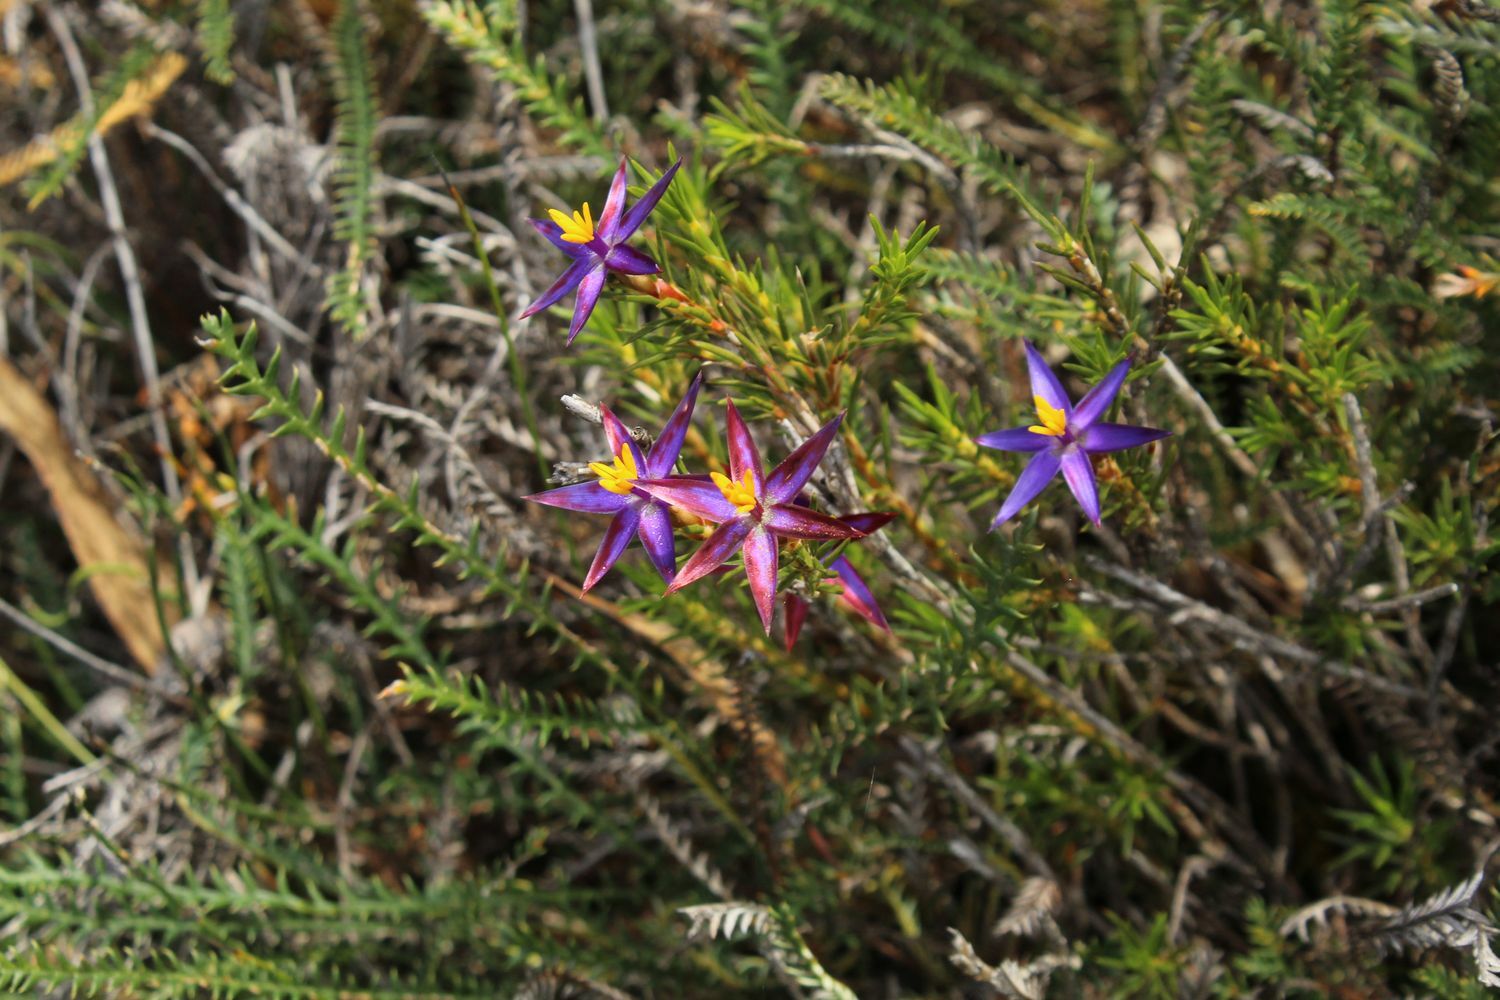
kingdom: Plantae
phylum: Tracheophyta
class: Liliopsida
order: Arecales
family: Dasypogonaceae
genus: Calectasia
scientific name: Calectasia demarzii
